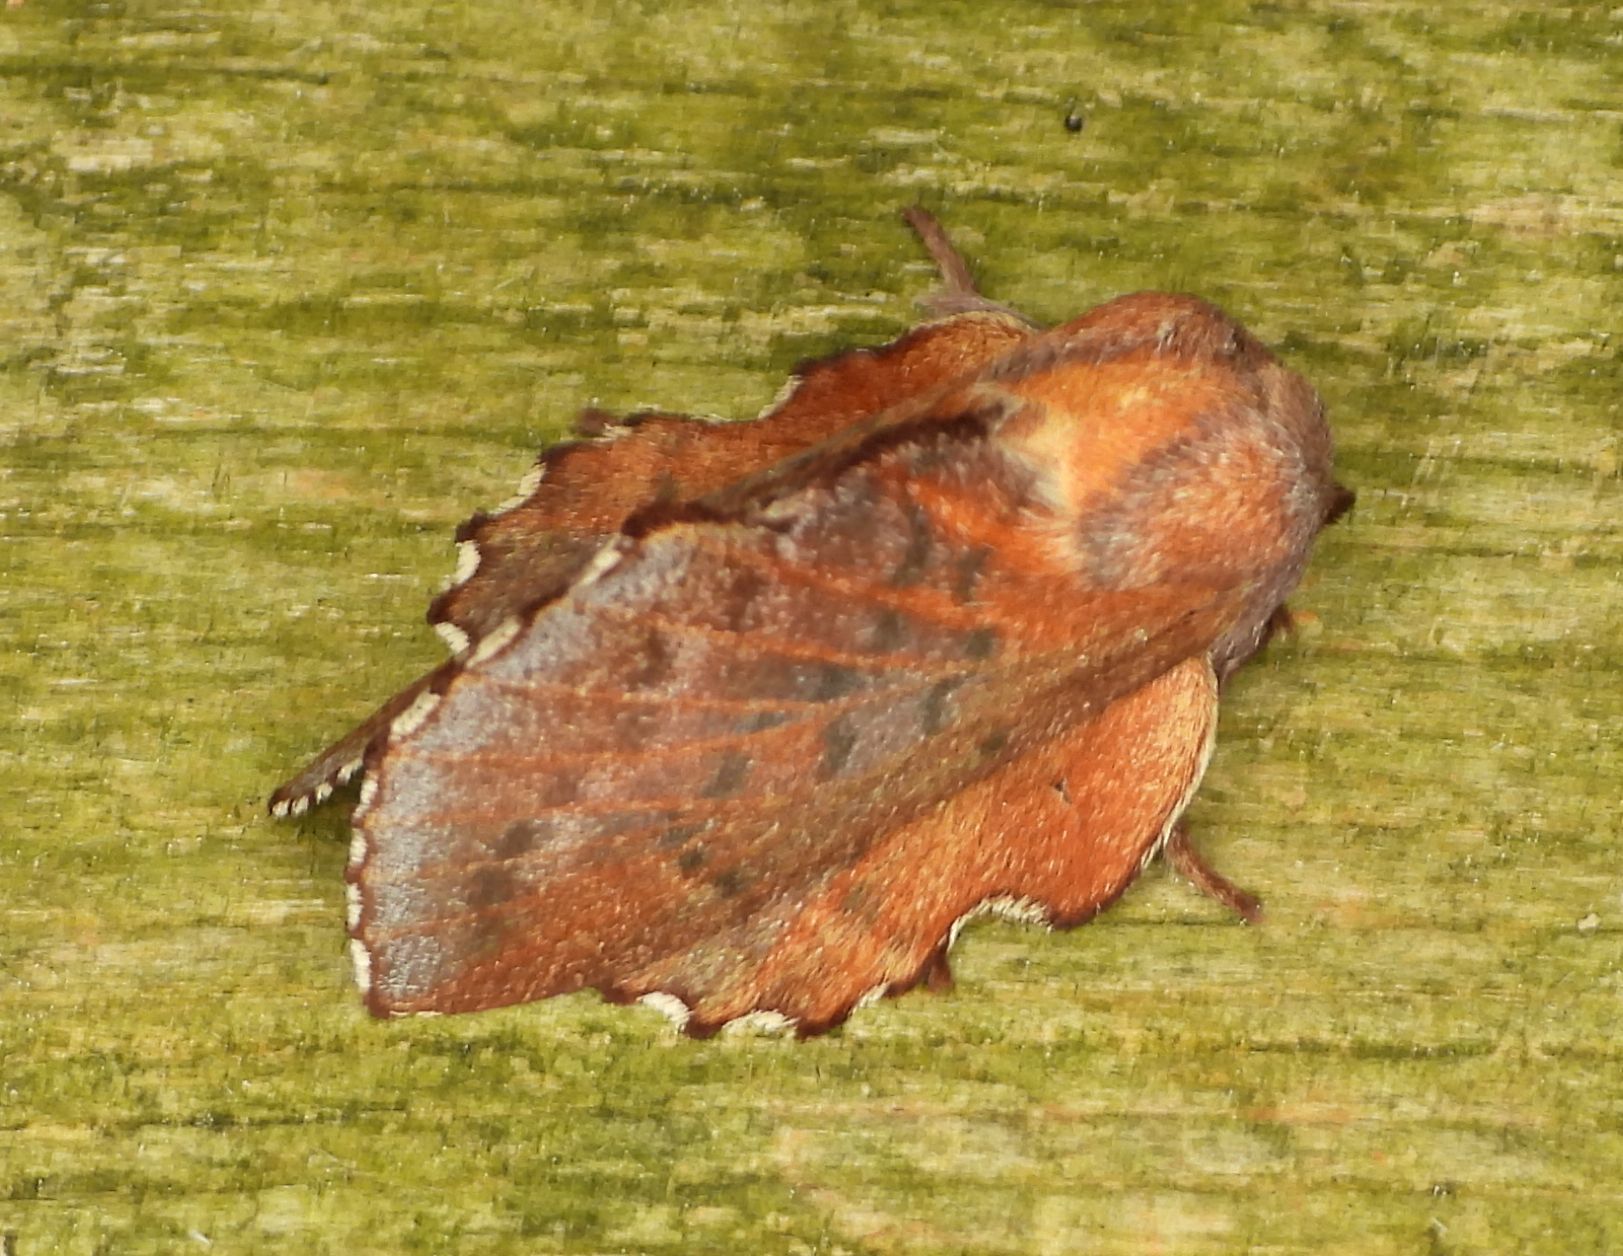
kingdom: Animalia
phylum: Arthropoda
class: Insecta
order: Lepidoptera
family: Lasiocampidae
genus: Phyllodesma
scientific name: Phyllodesma americana
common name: American lappet moth
